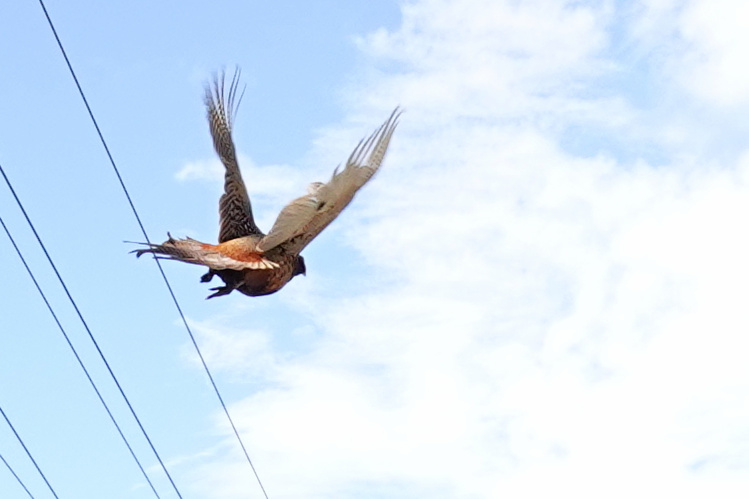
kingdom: Animalia
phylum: Chordata
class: Aves
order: Galliformes
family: Phasianidae
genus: Phasianus
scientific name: Phasianus colchicus
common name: Common pheasant
